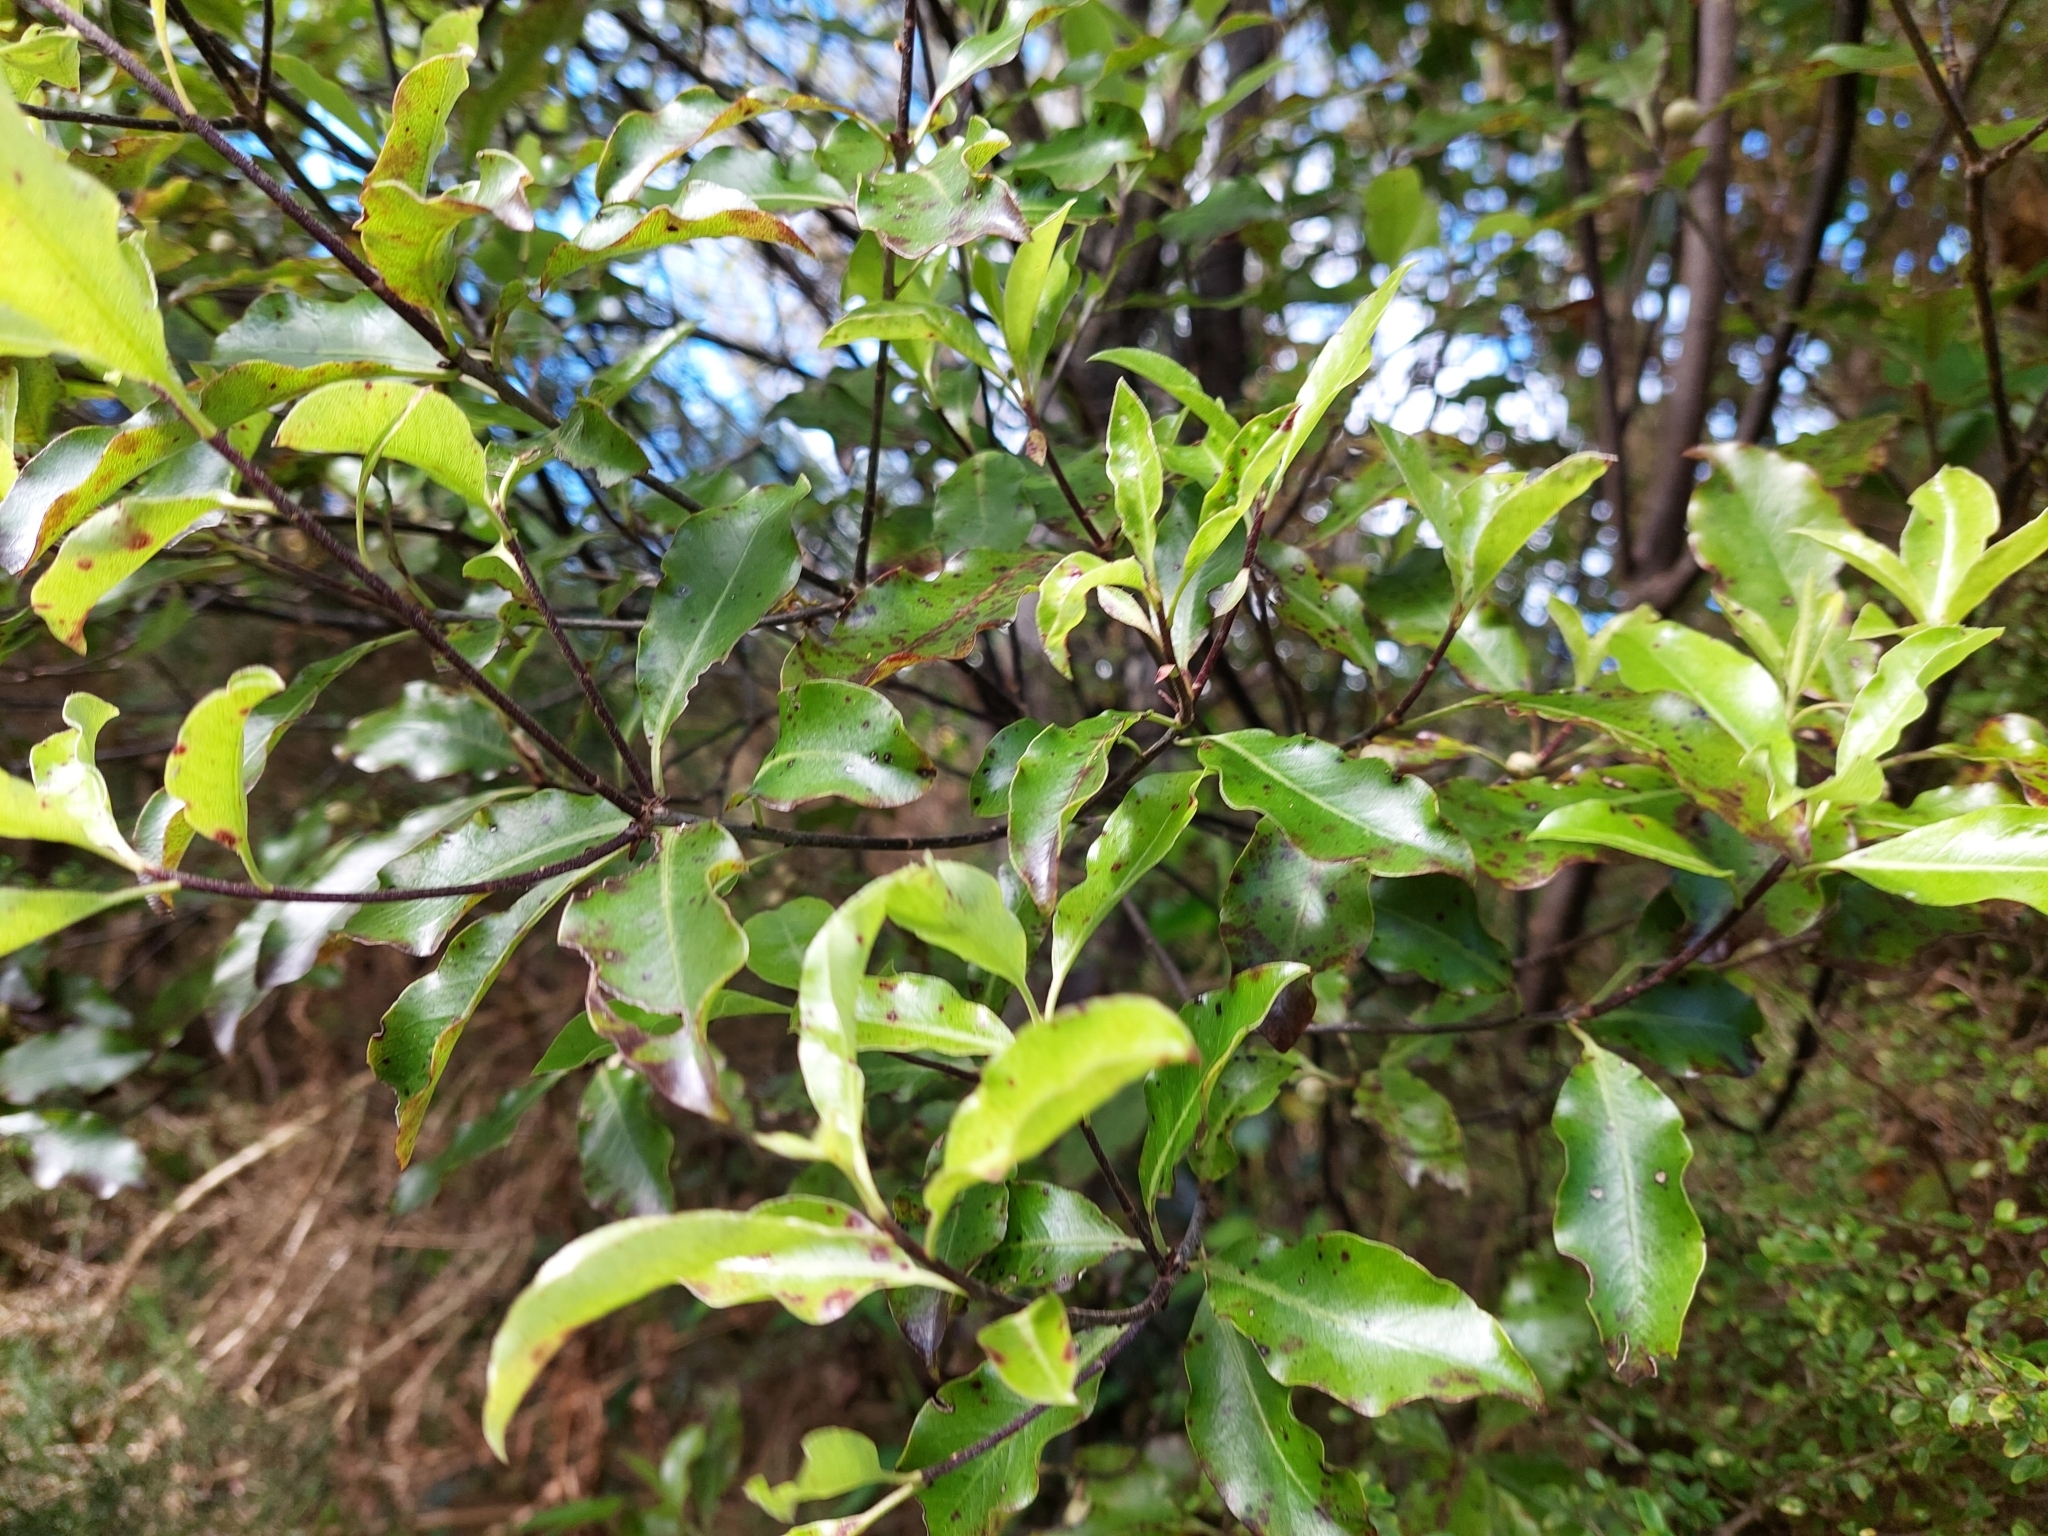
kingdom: Plantae
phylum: Tracheophyta
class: Magnoliopsida
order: Apiales
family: Pittosporaceae
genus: Pittosporum
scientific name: Pittosporum tenuifolium
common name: Kohuhu
